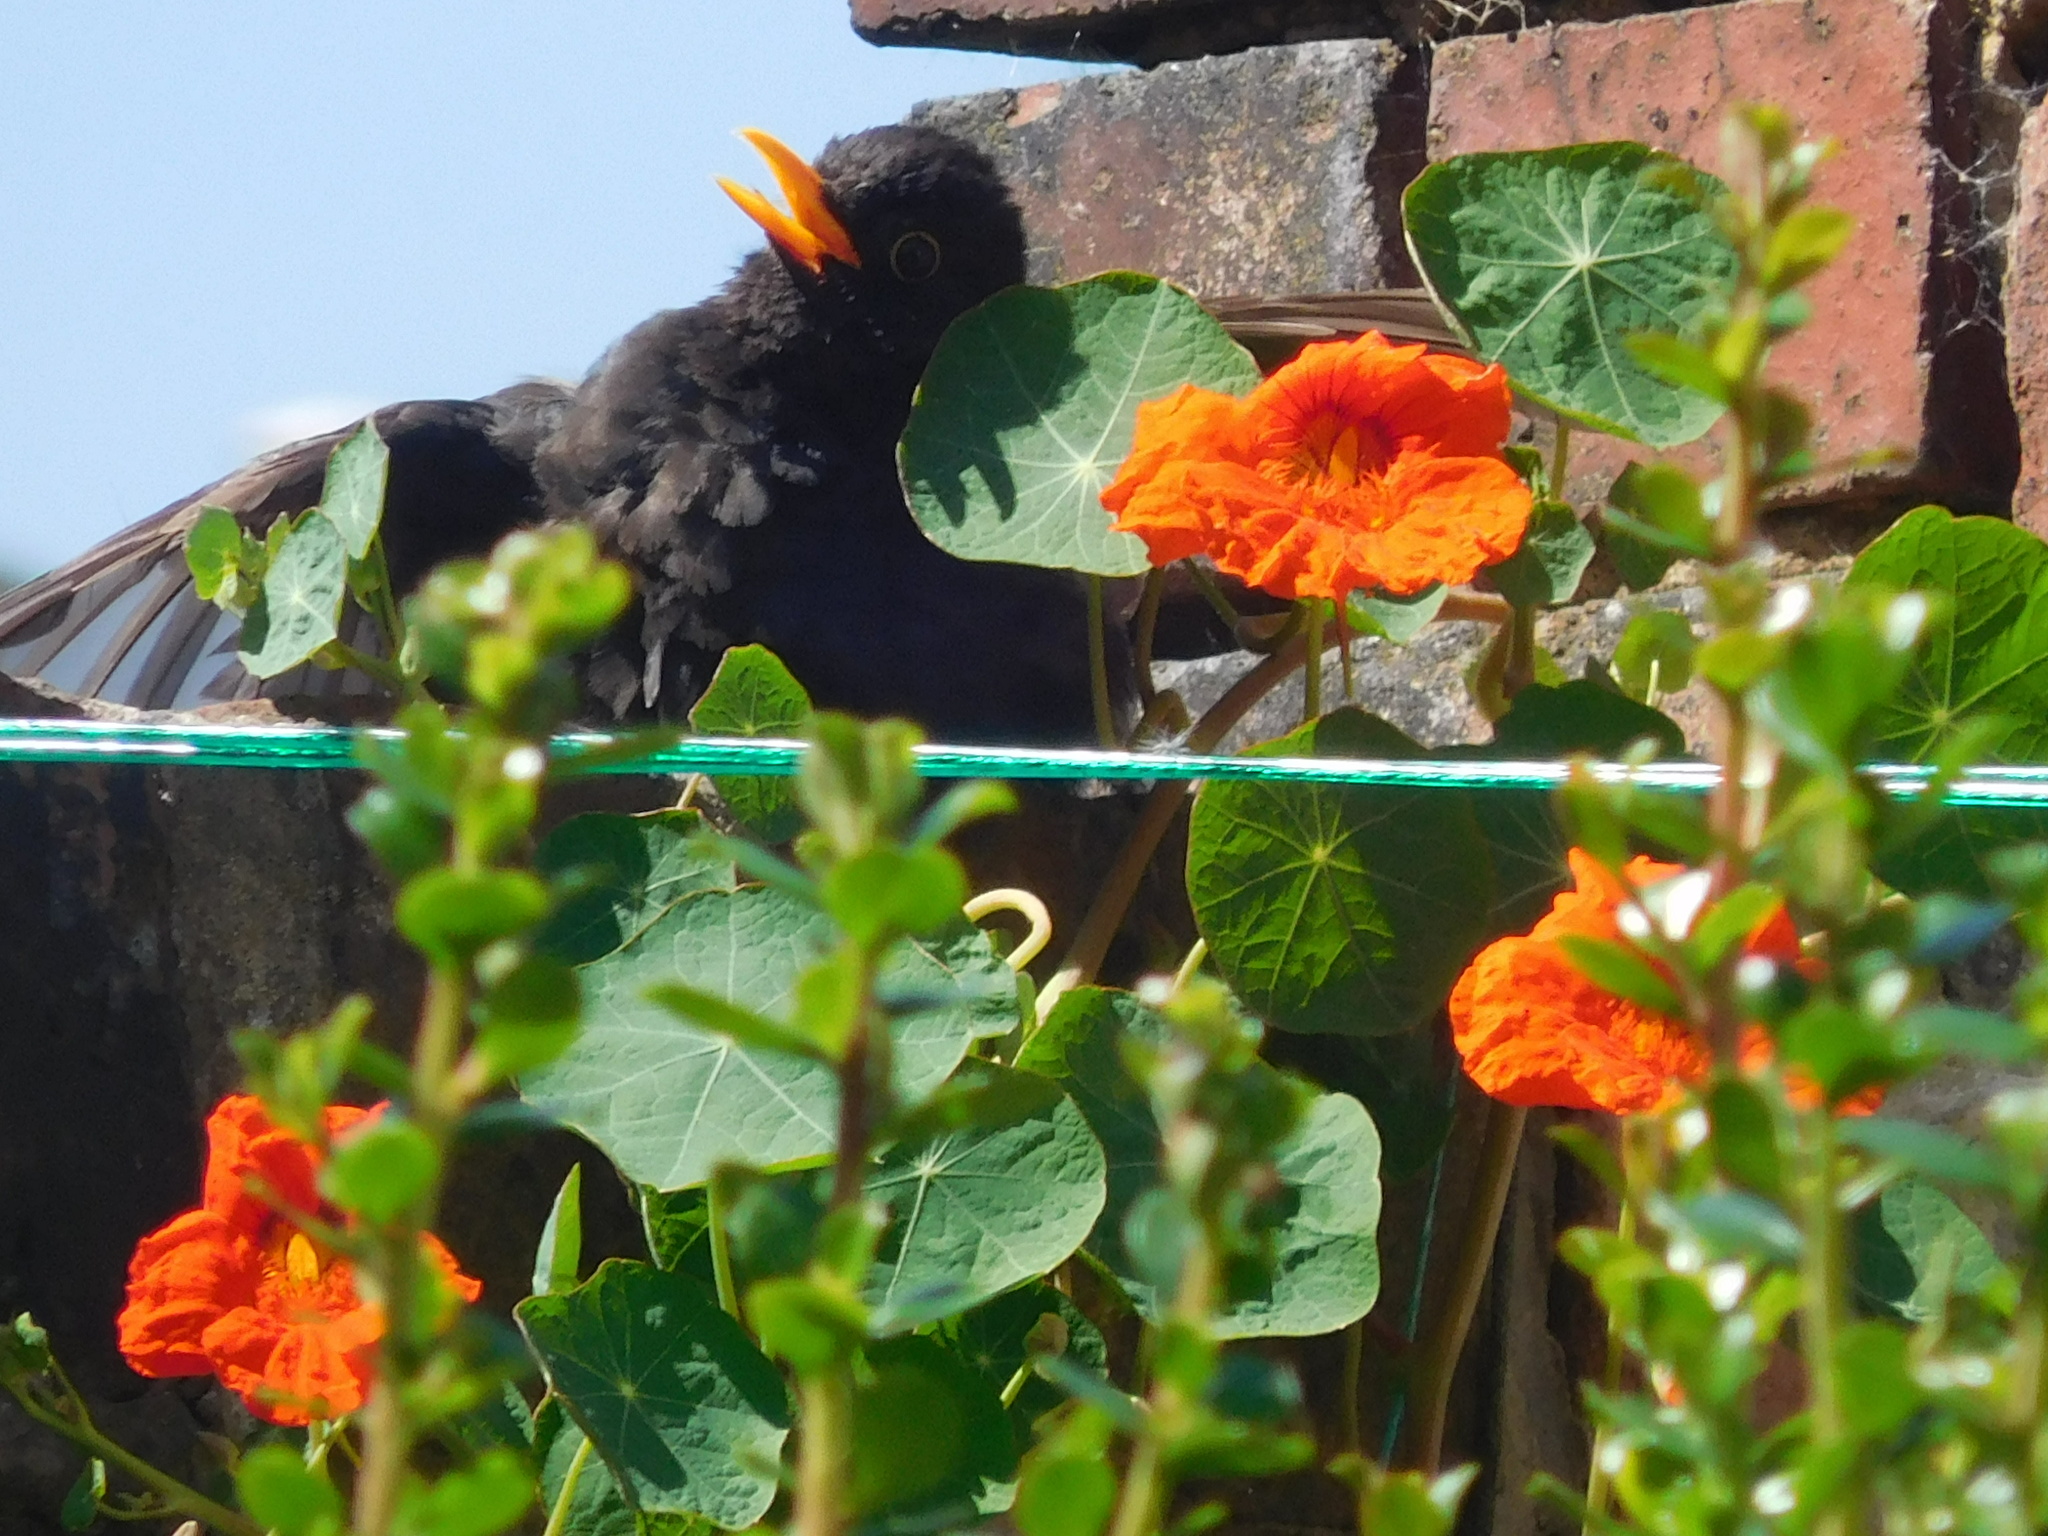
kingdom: Animalia
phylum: Chordata
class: Aves
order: Passeriformes
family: Turdidae
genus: Turdus
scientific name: Turdus merula
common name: Common blackbird
